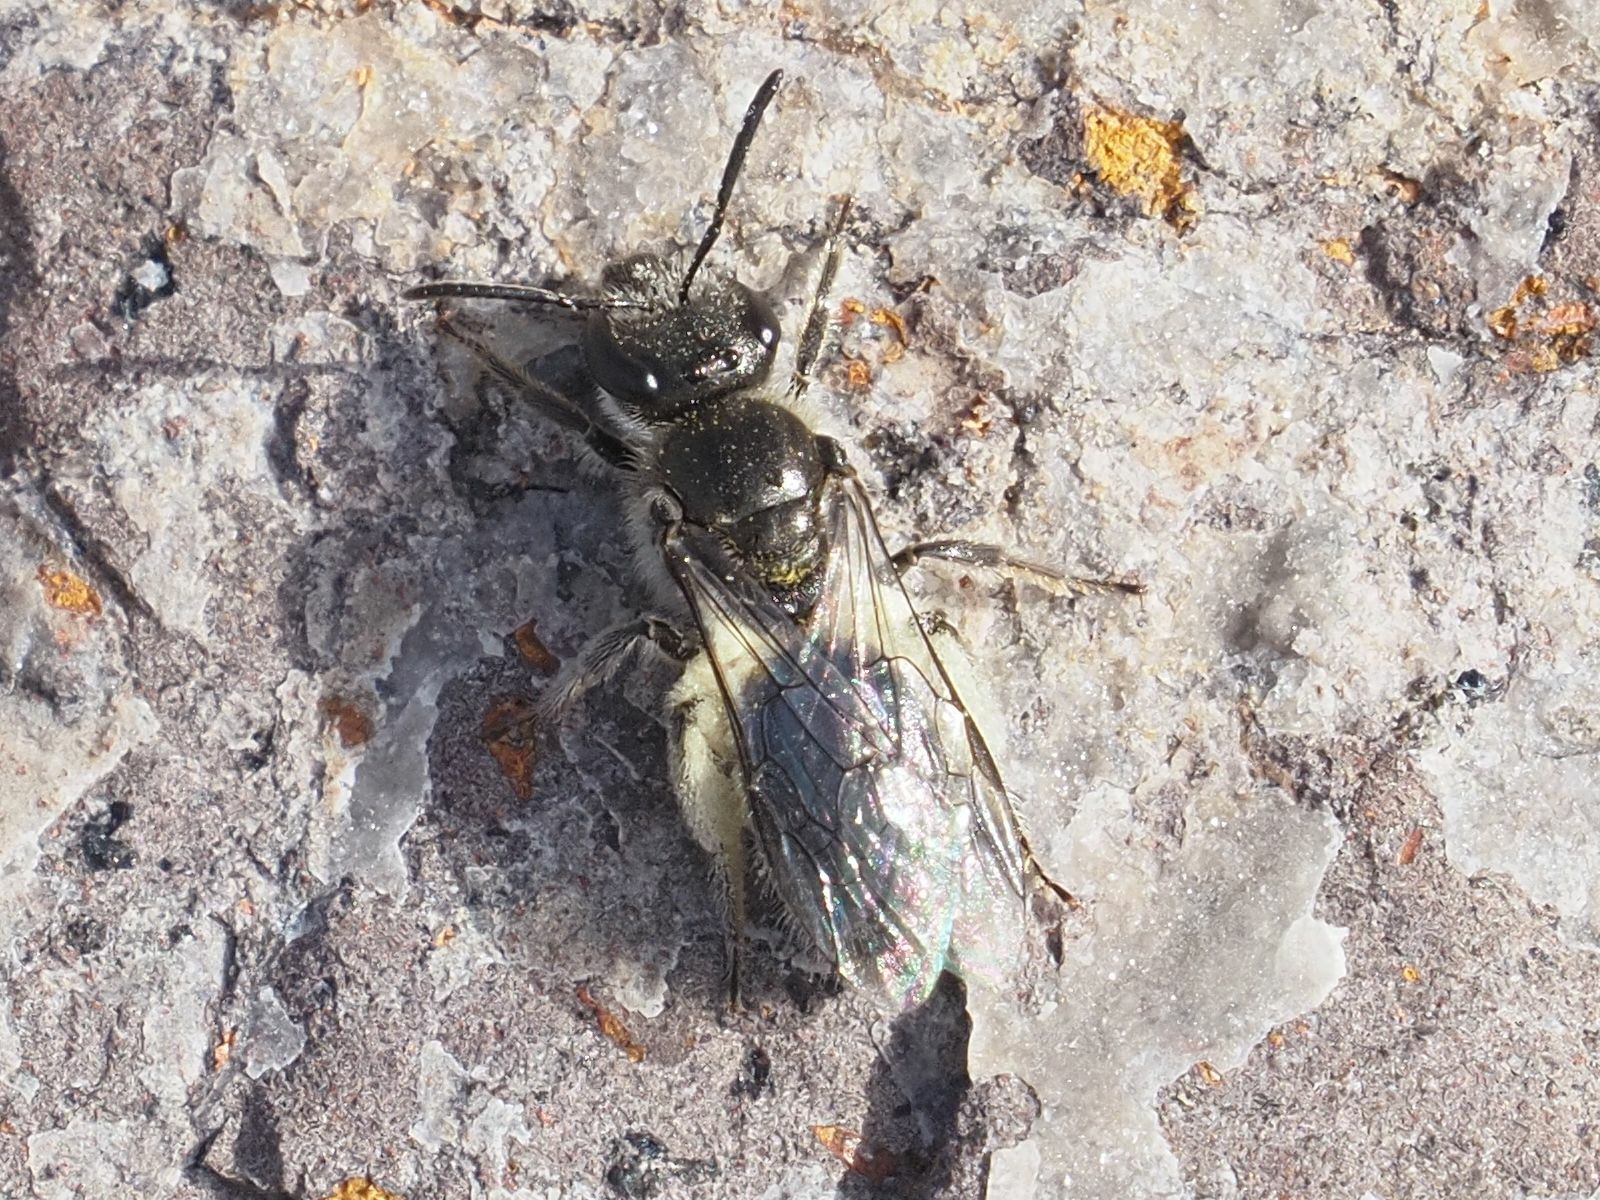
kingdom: Animalia
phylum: Arthropoda
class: Insecta
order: Hymenoptera
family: Halictidae
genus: Lasioglossum
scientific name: Lasioglossum viride
